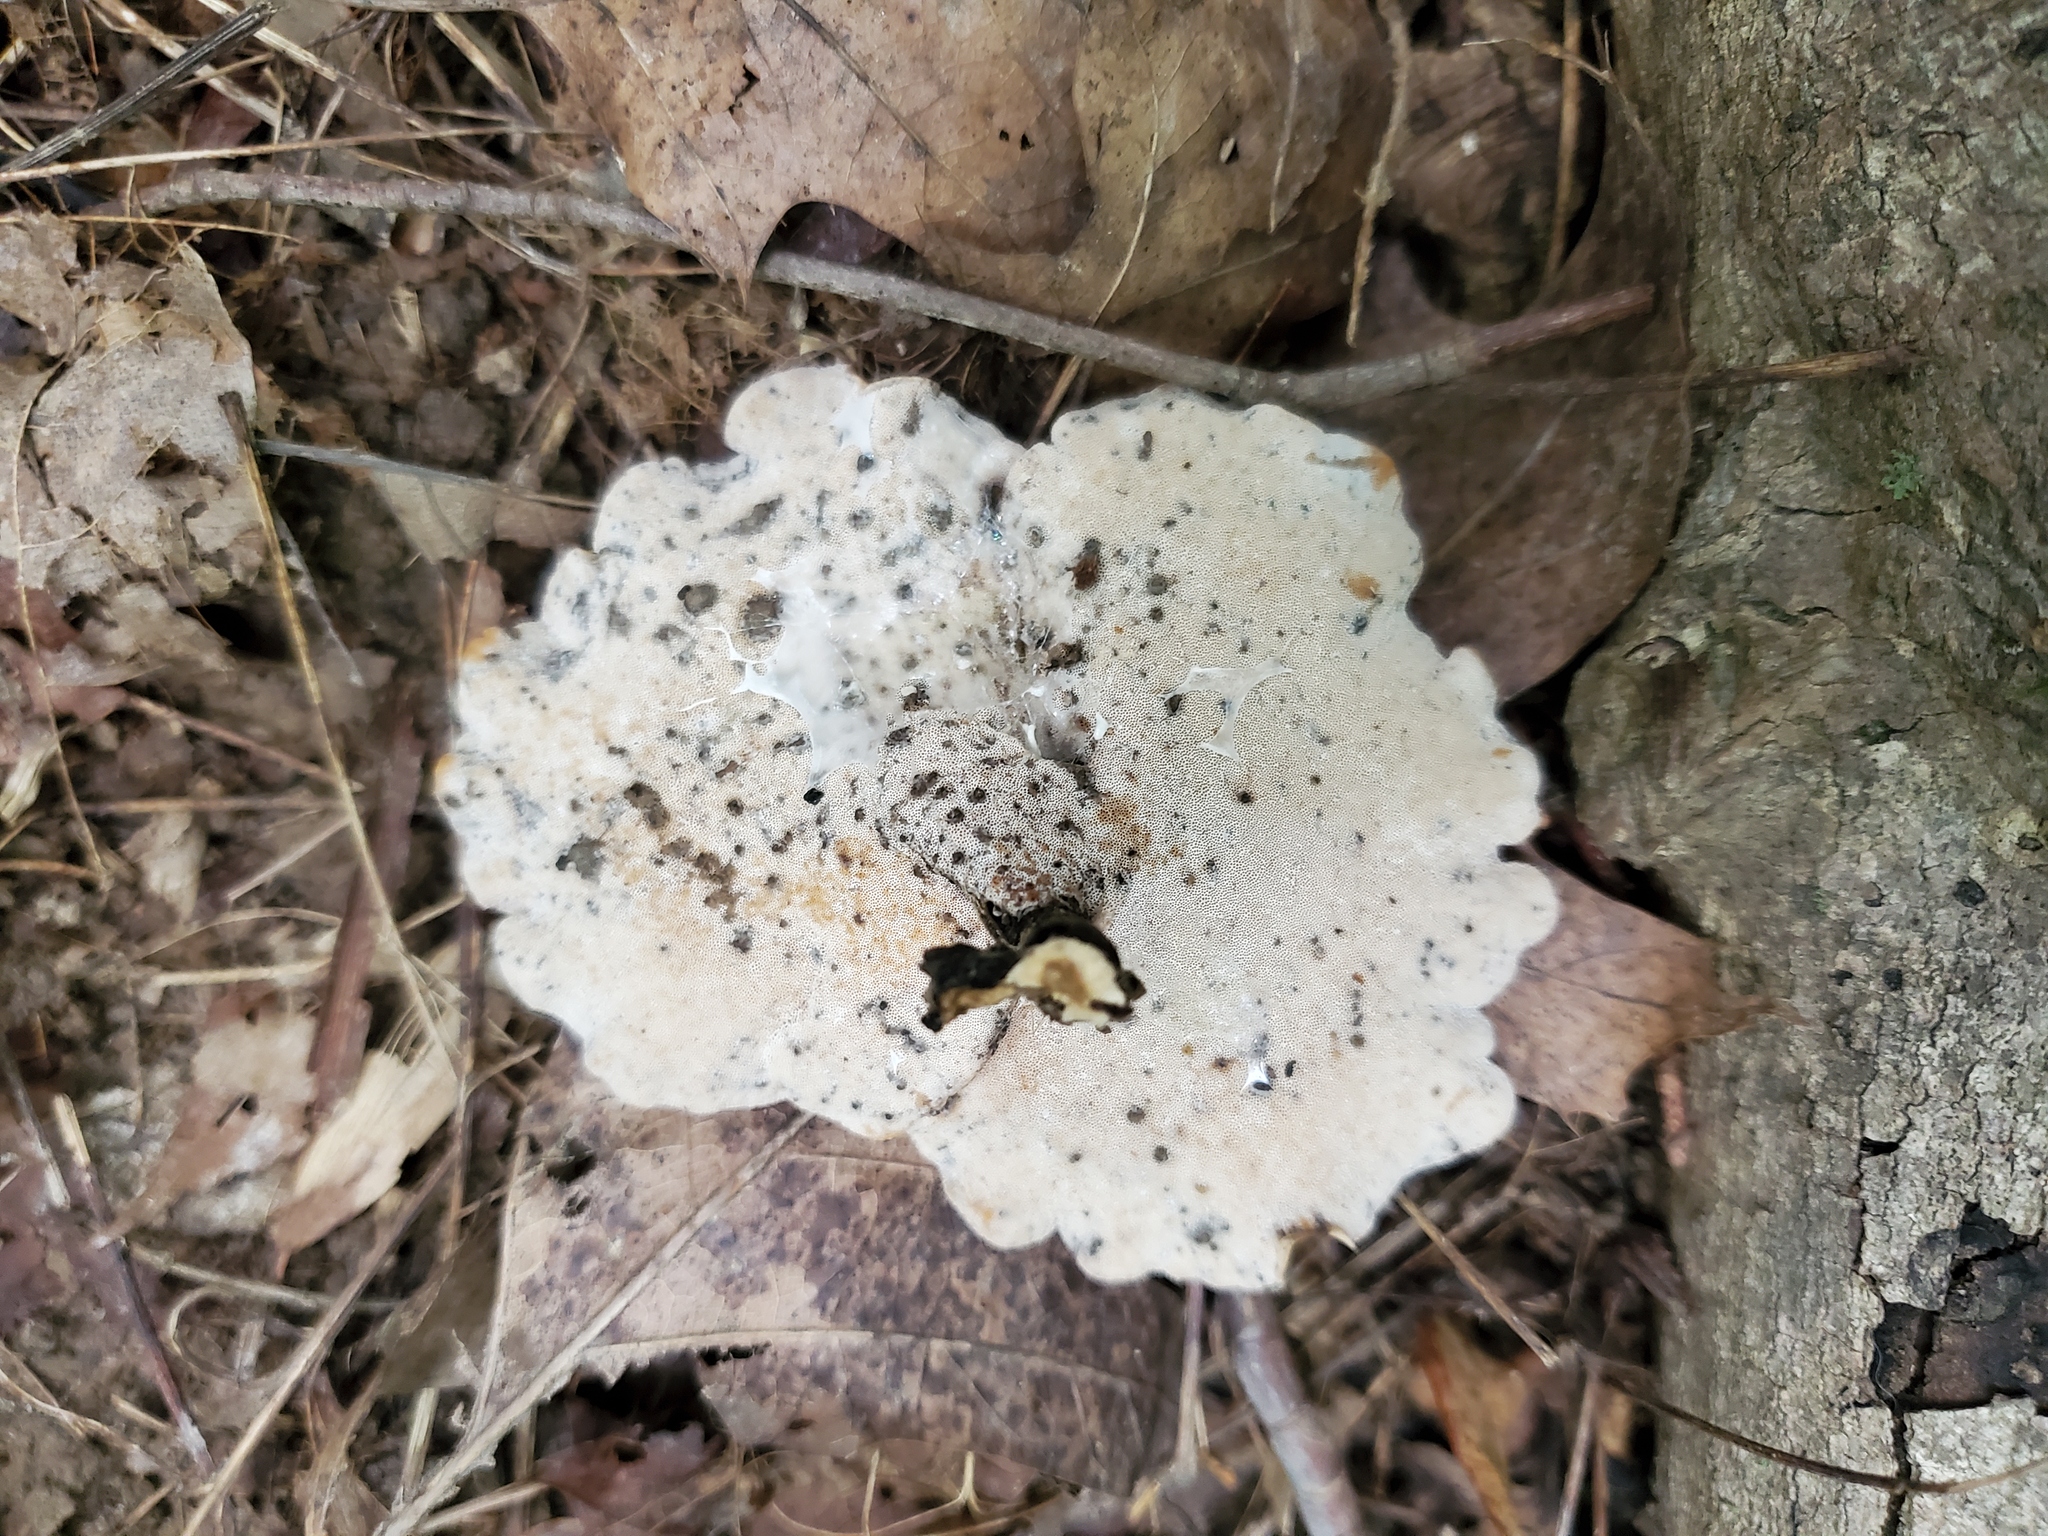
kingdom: Fungi
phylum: Basidiomycota
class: Agaricomycetes
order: Polyporales
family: Polyporaceae
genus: Cerioporus
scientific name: Cerioporus leptocephalus
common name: Blackfoot polypore
